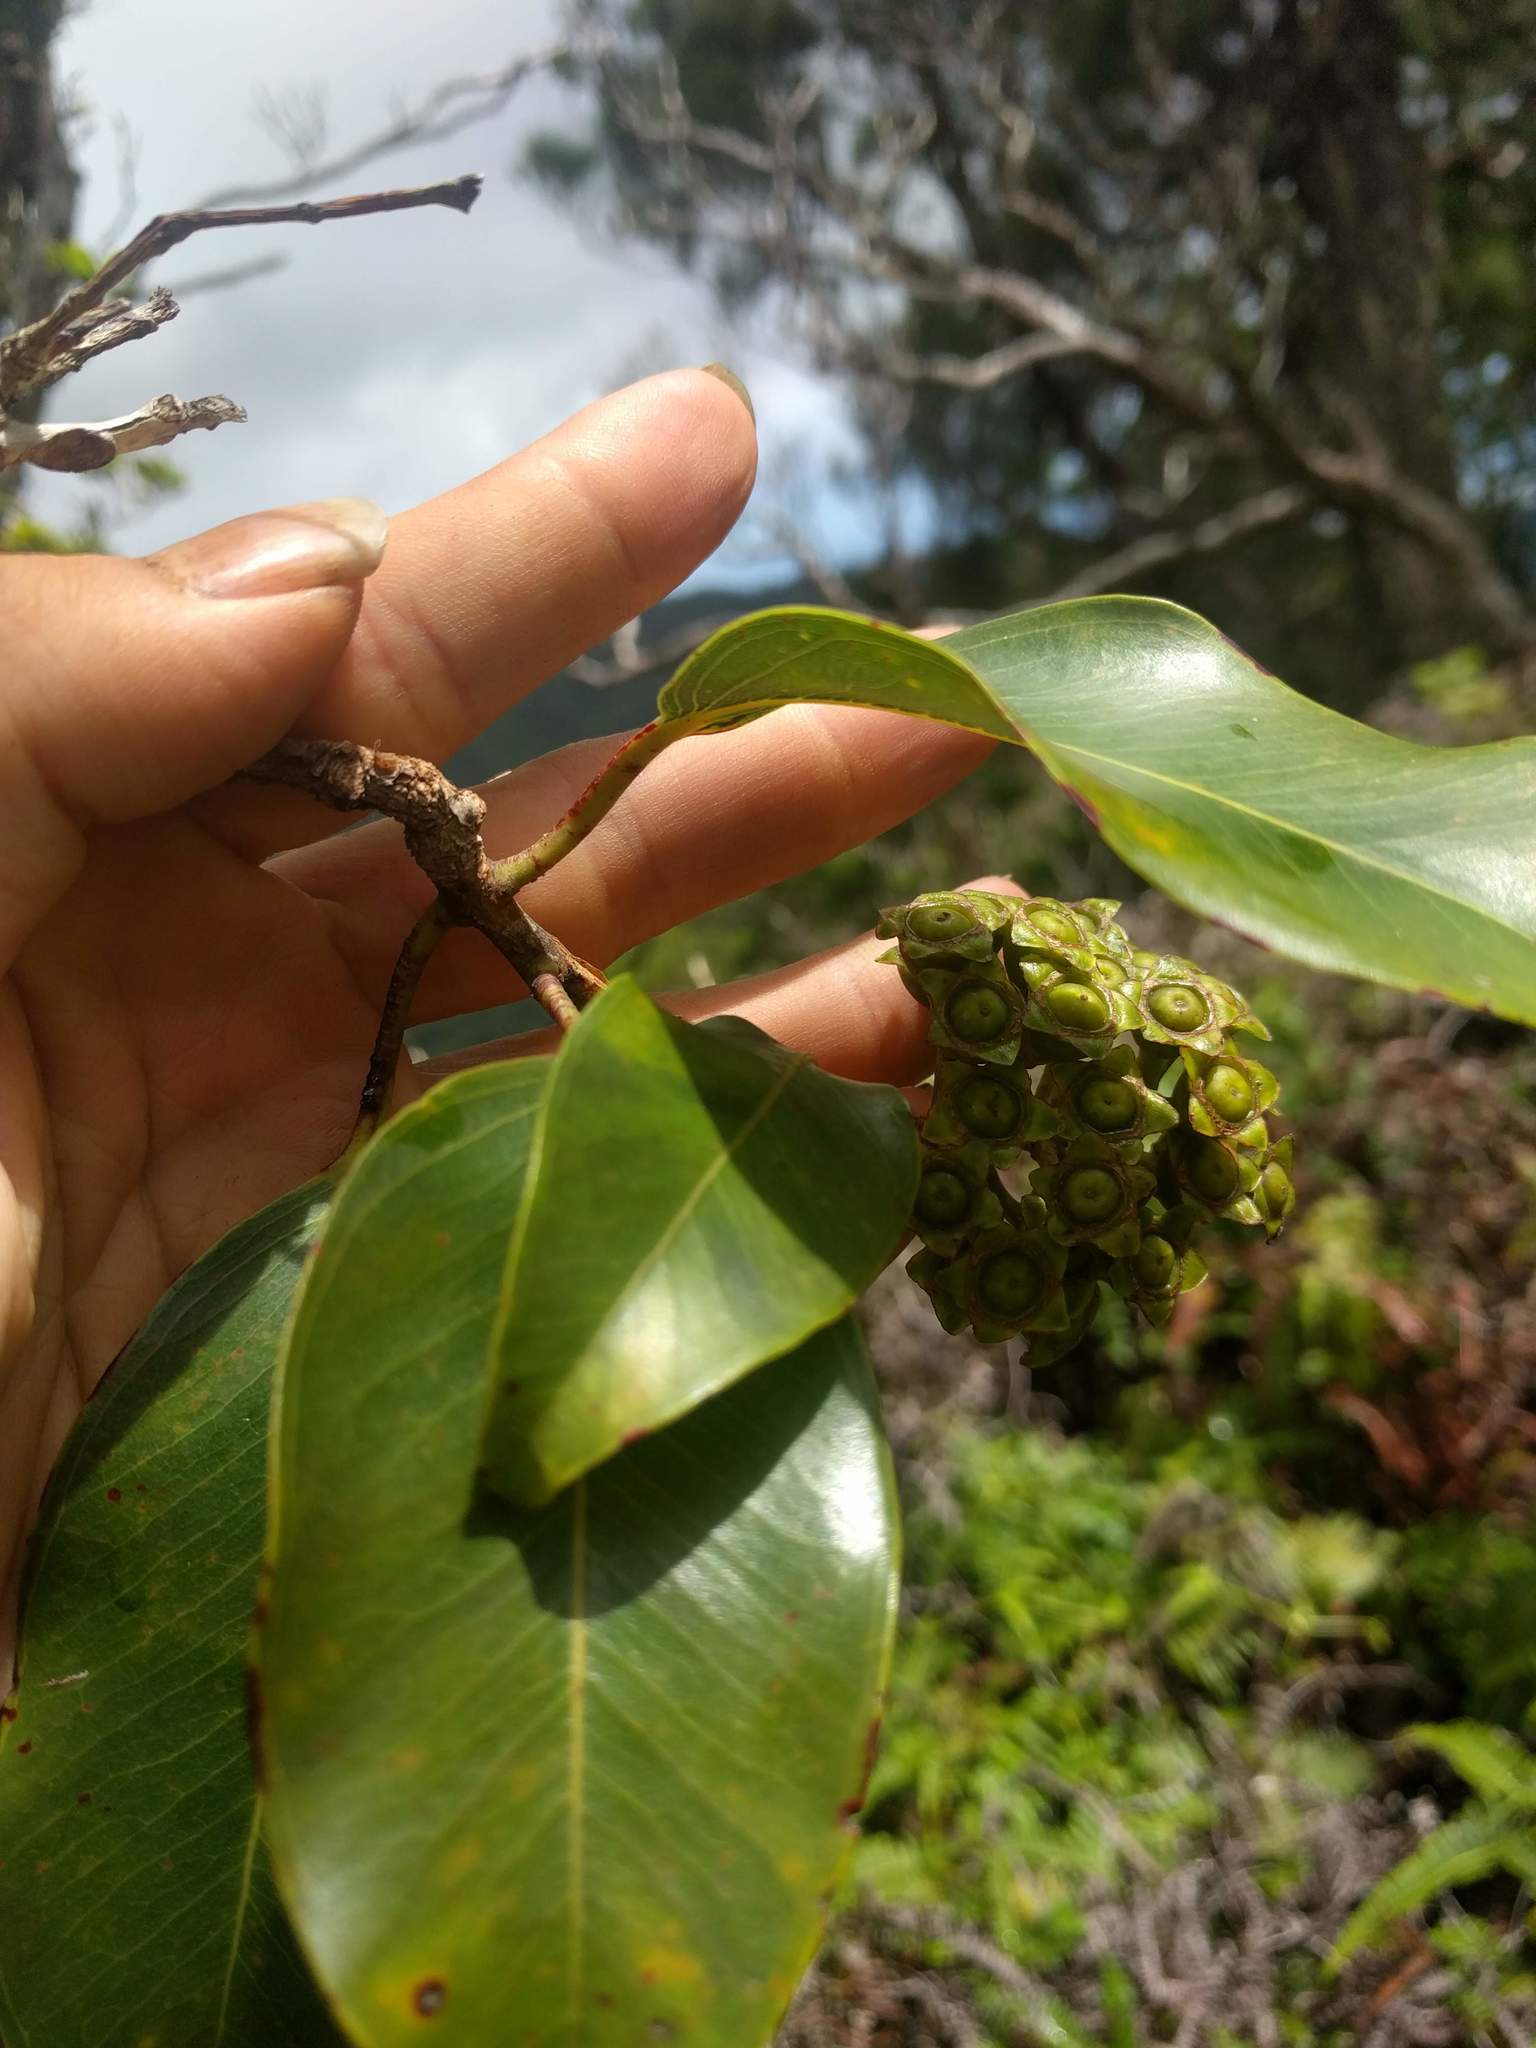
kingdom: Plantae
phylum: Tracheophyta
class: Magnoliopsida
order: Myrtales
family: Myrtaceae
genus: Metrosideros
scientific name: Metrosideros polymorpha
